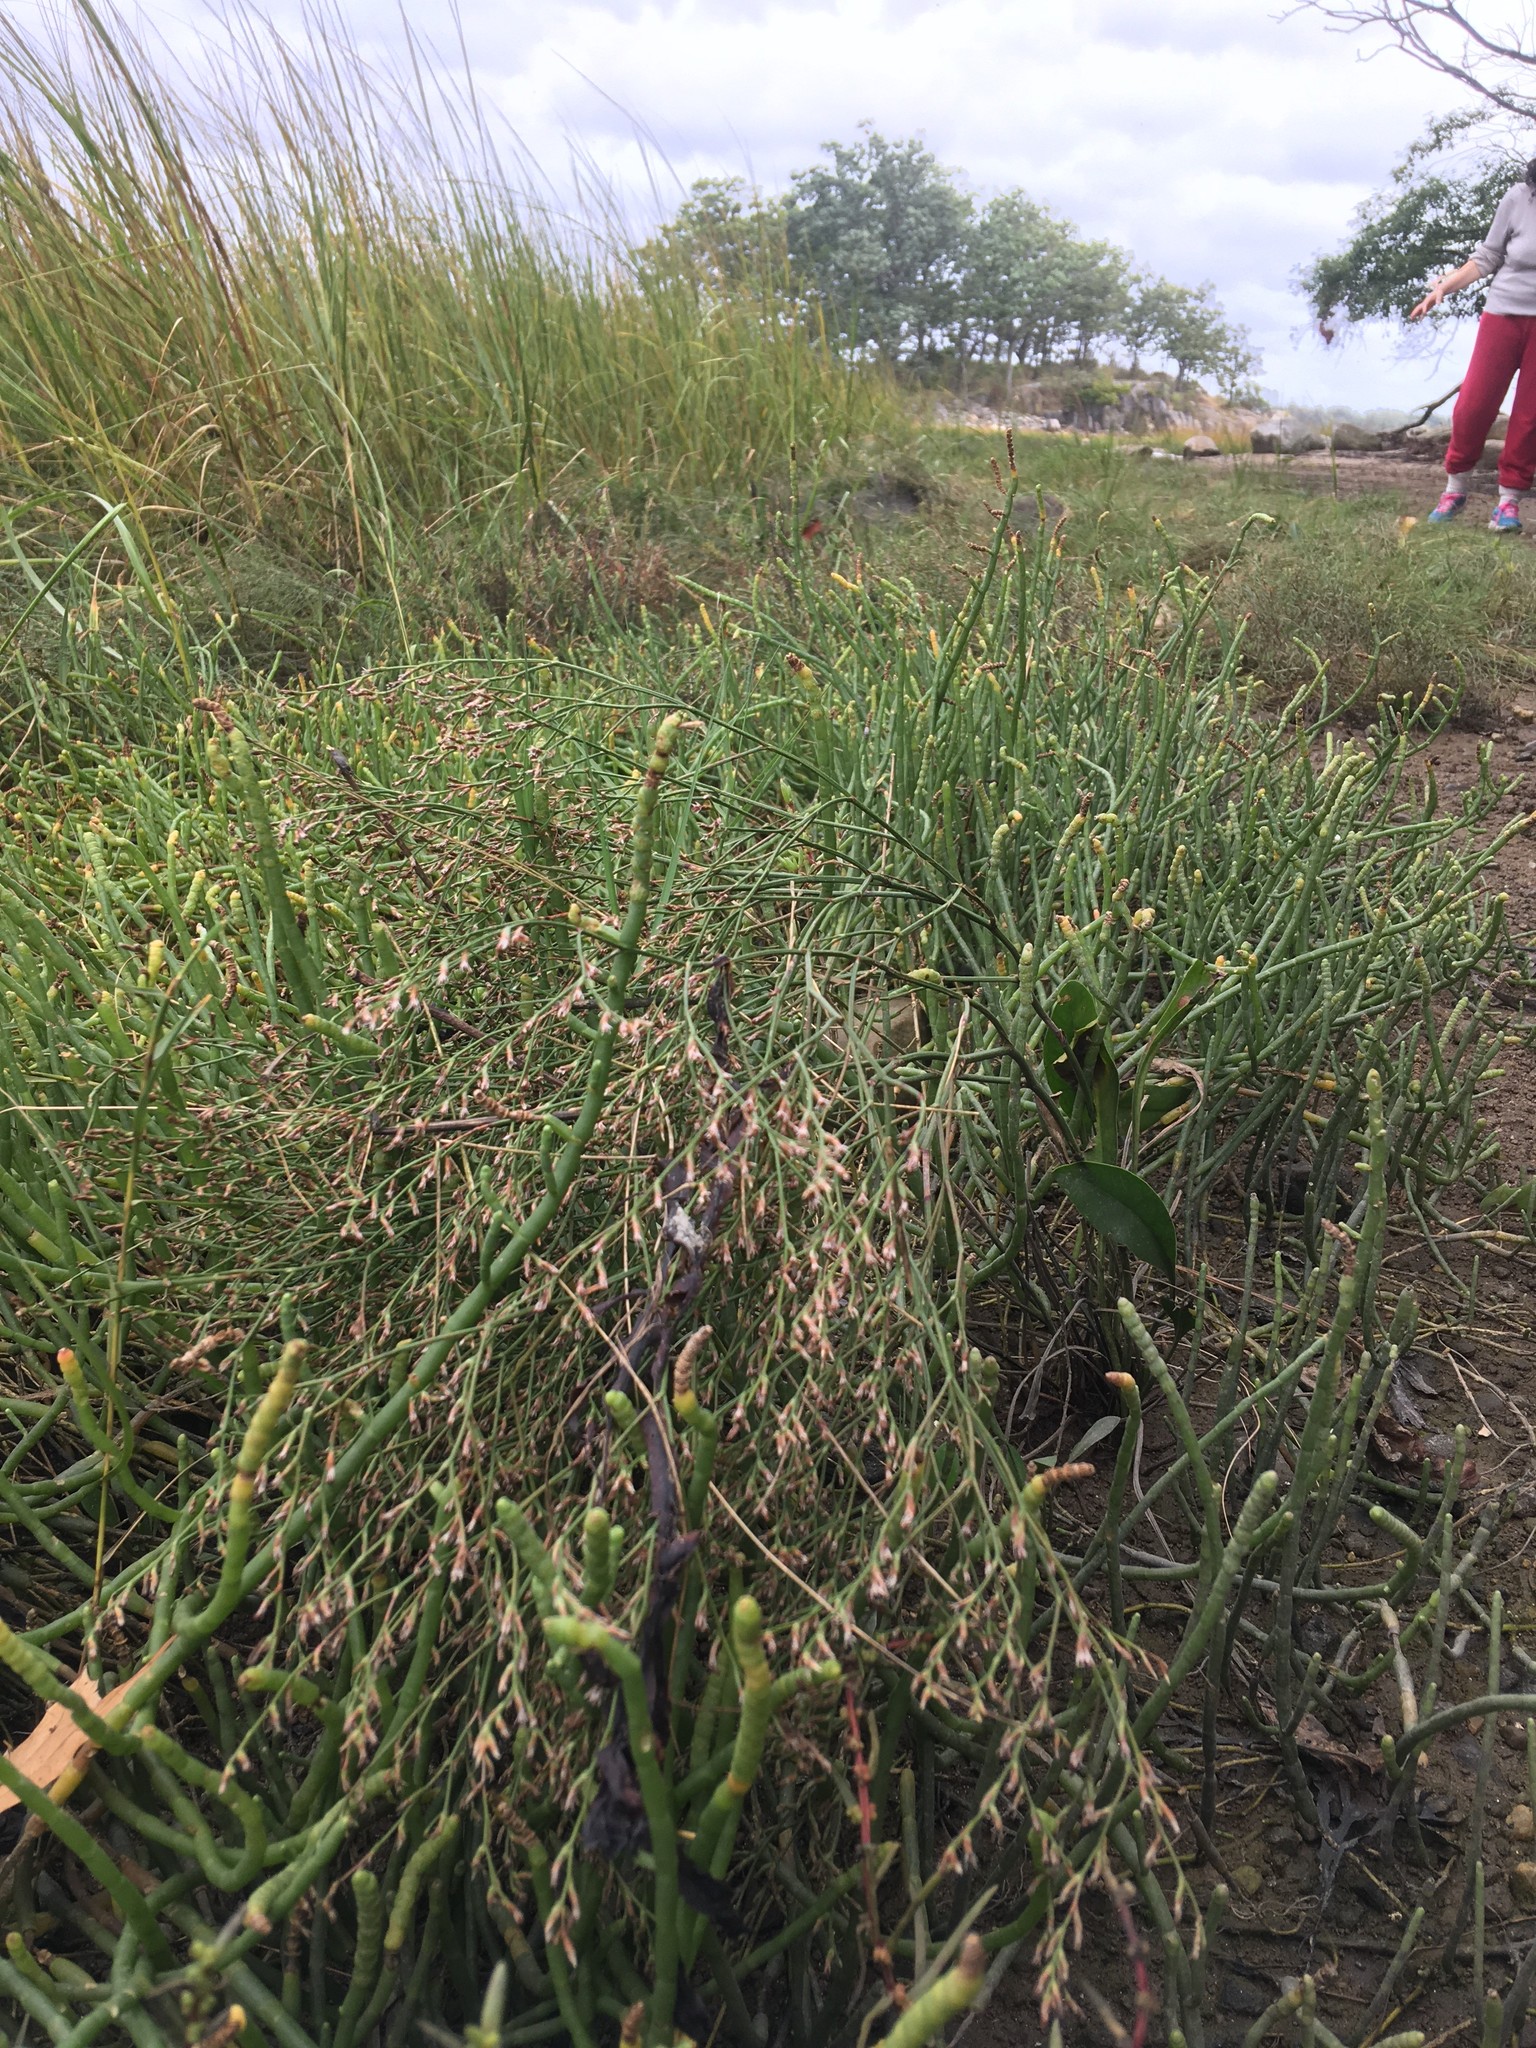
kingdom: Plantae
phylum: Tracheophyta
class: Magnoliopsida
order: Caryophyllales
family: Plumbaginaceae
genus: Limonium
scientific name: Limonium carolinianum
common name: Carolina sea lavender
